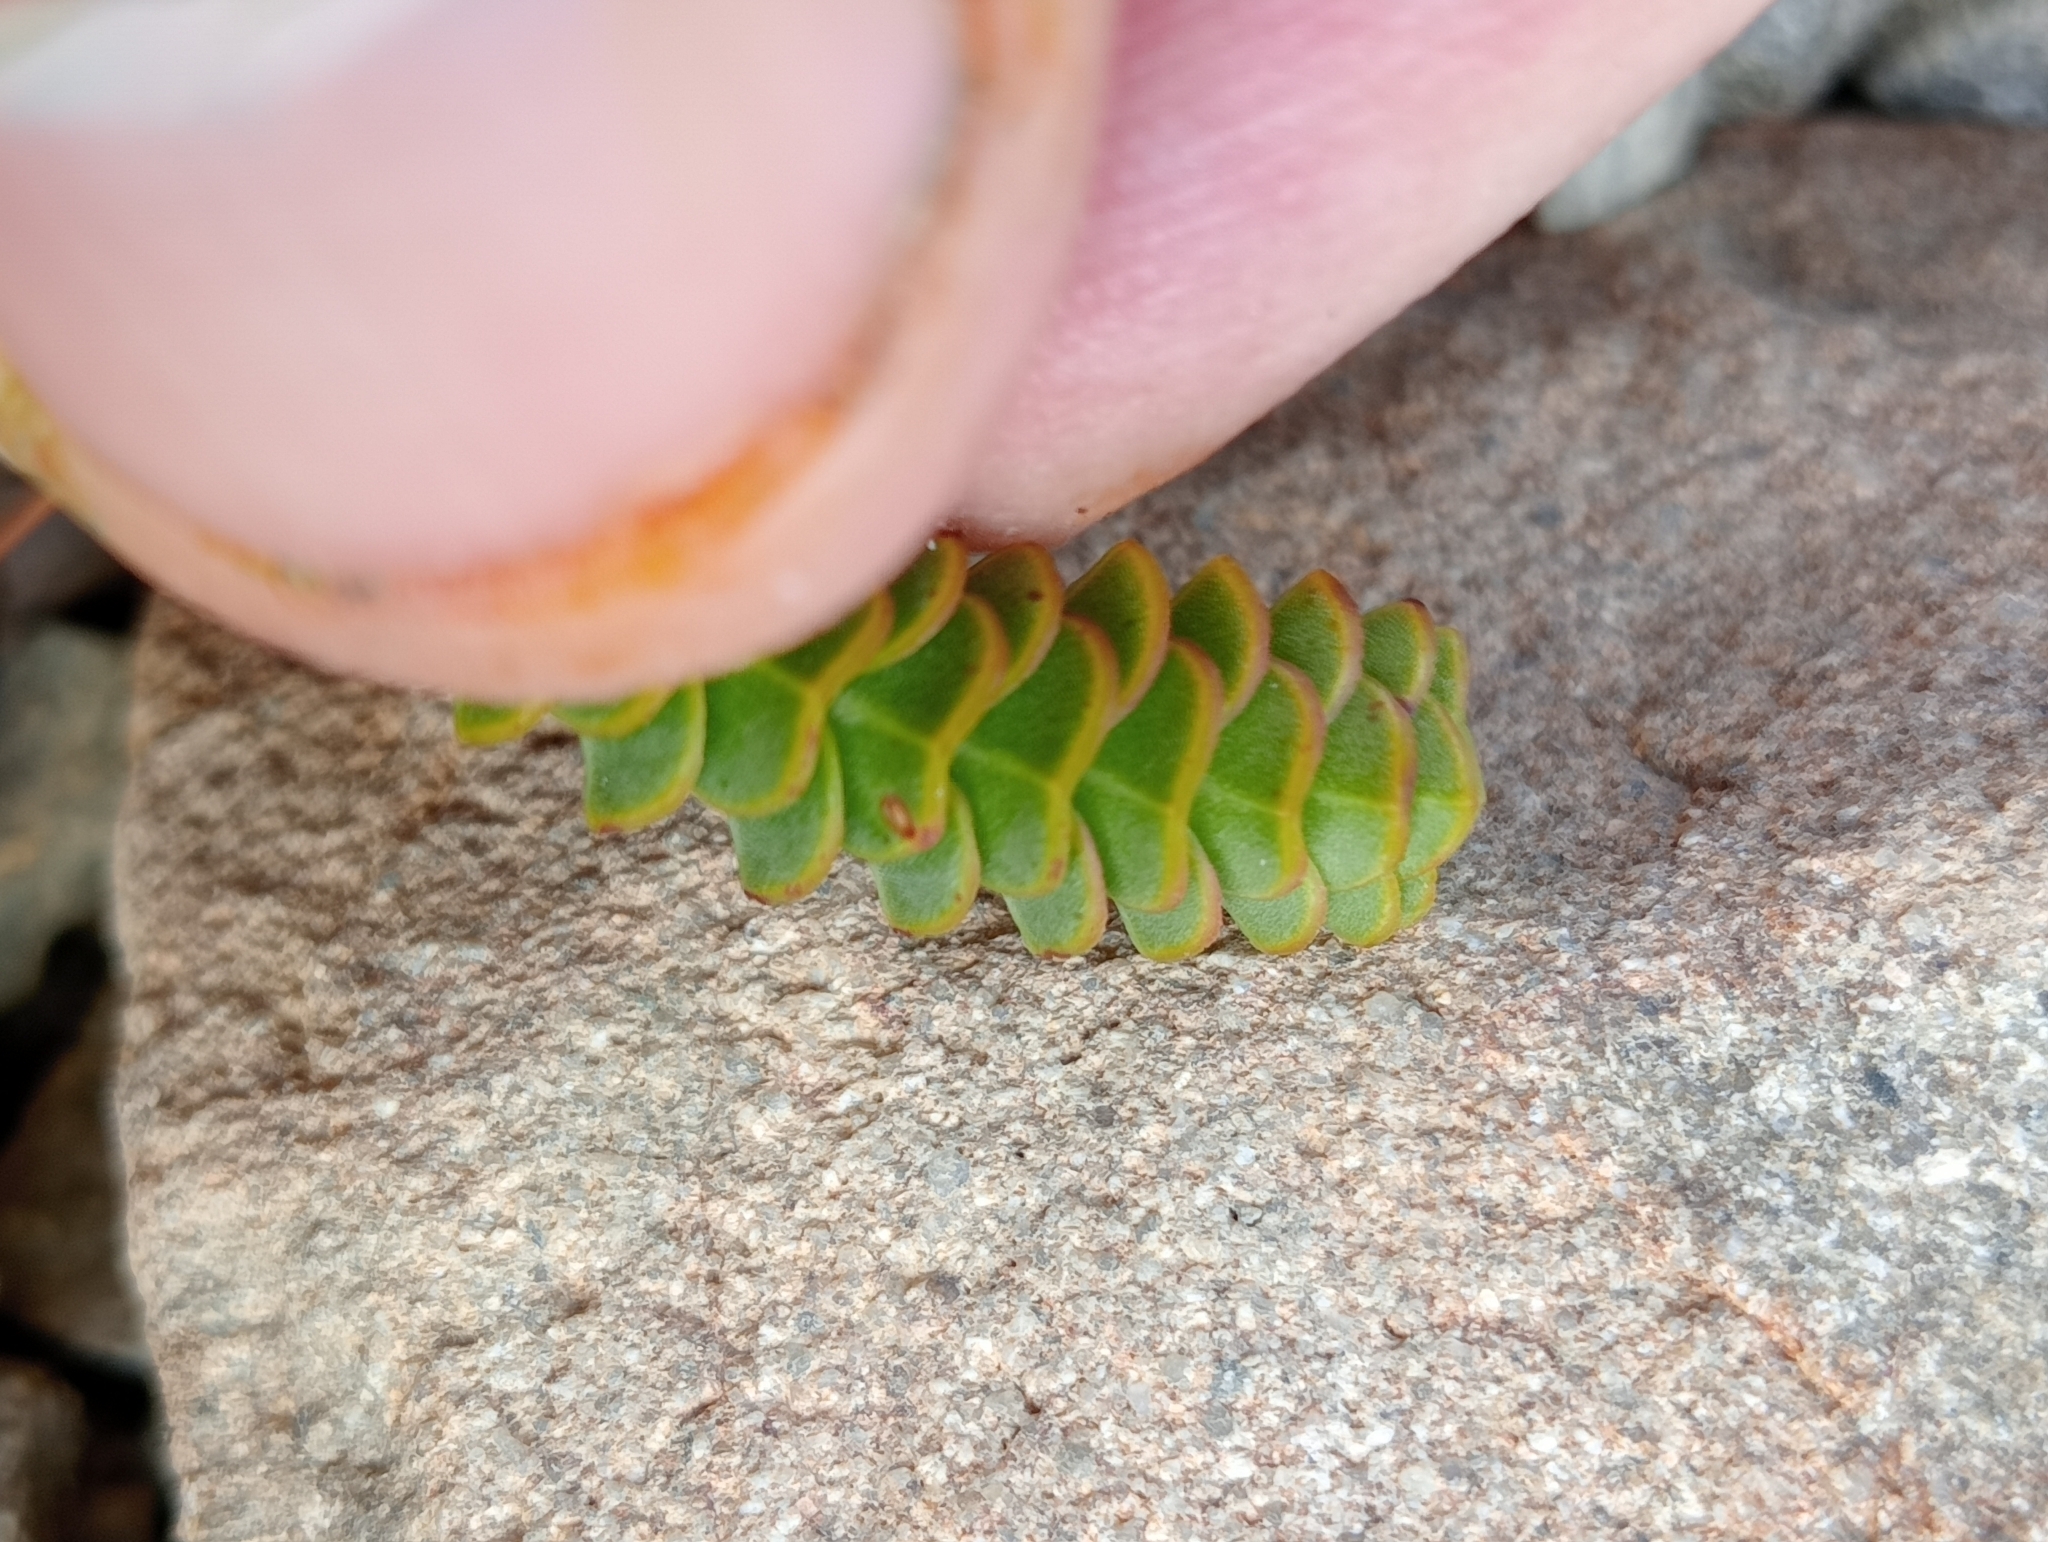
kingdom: Plantae
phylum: Tracheophyta
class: Magnoliopsida
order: Lamiales
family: Plantaginaceae
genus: Veronica
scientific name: Veronica epacridea
